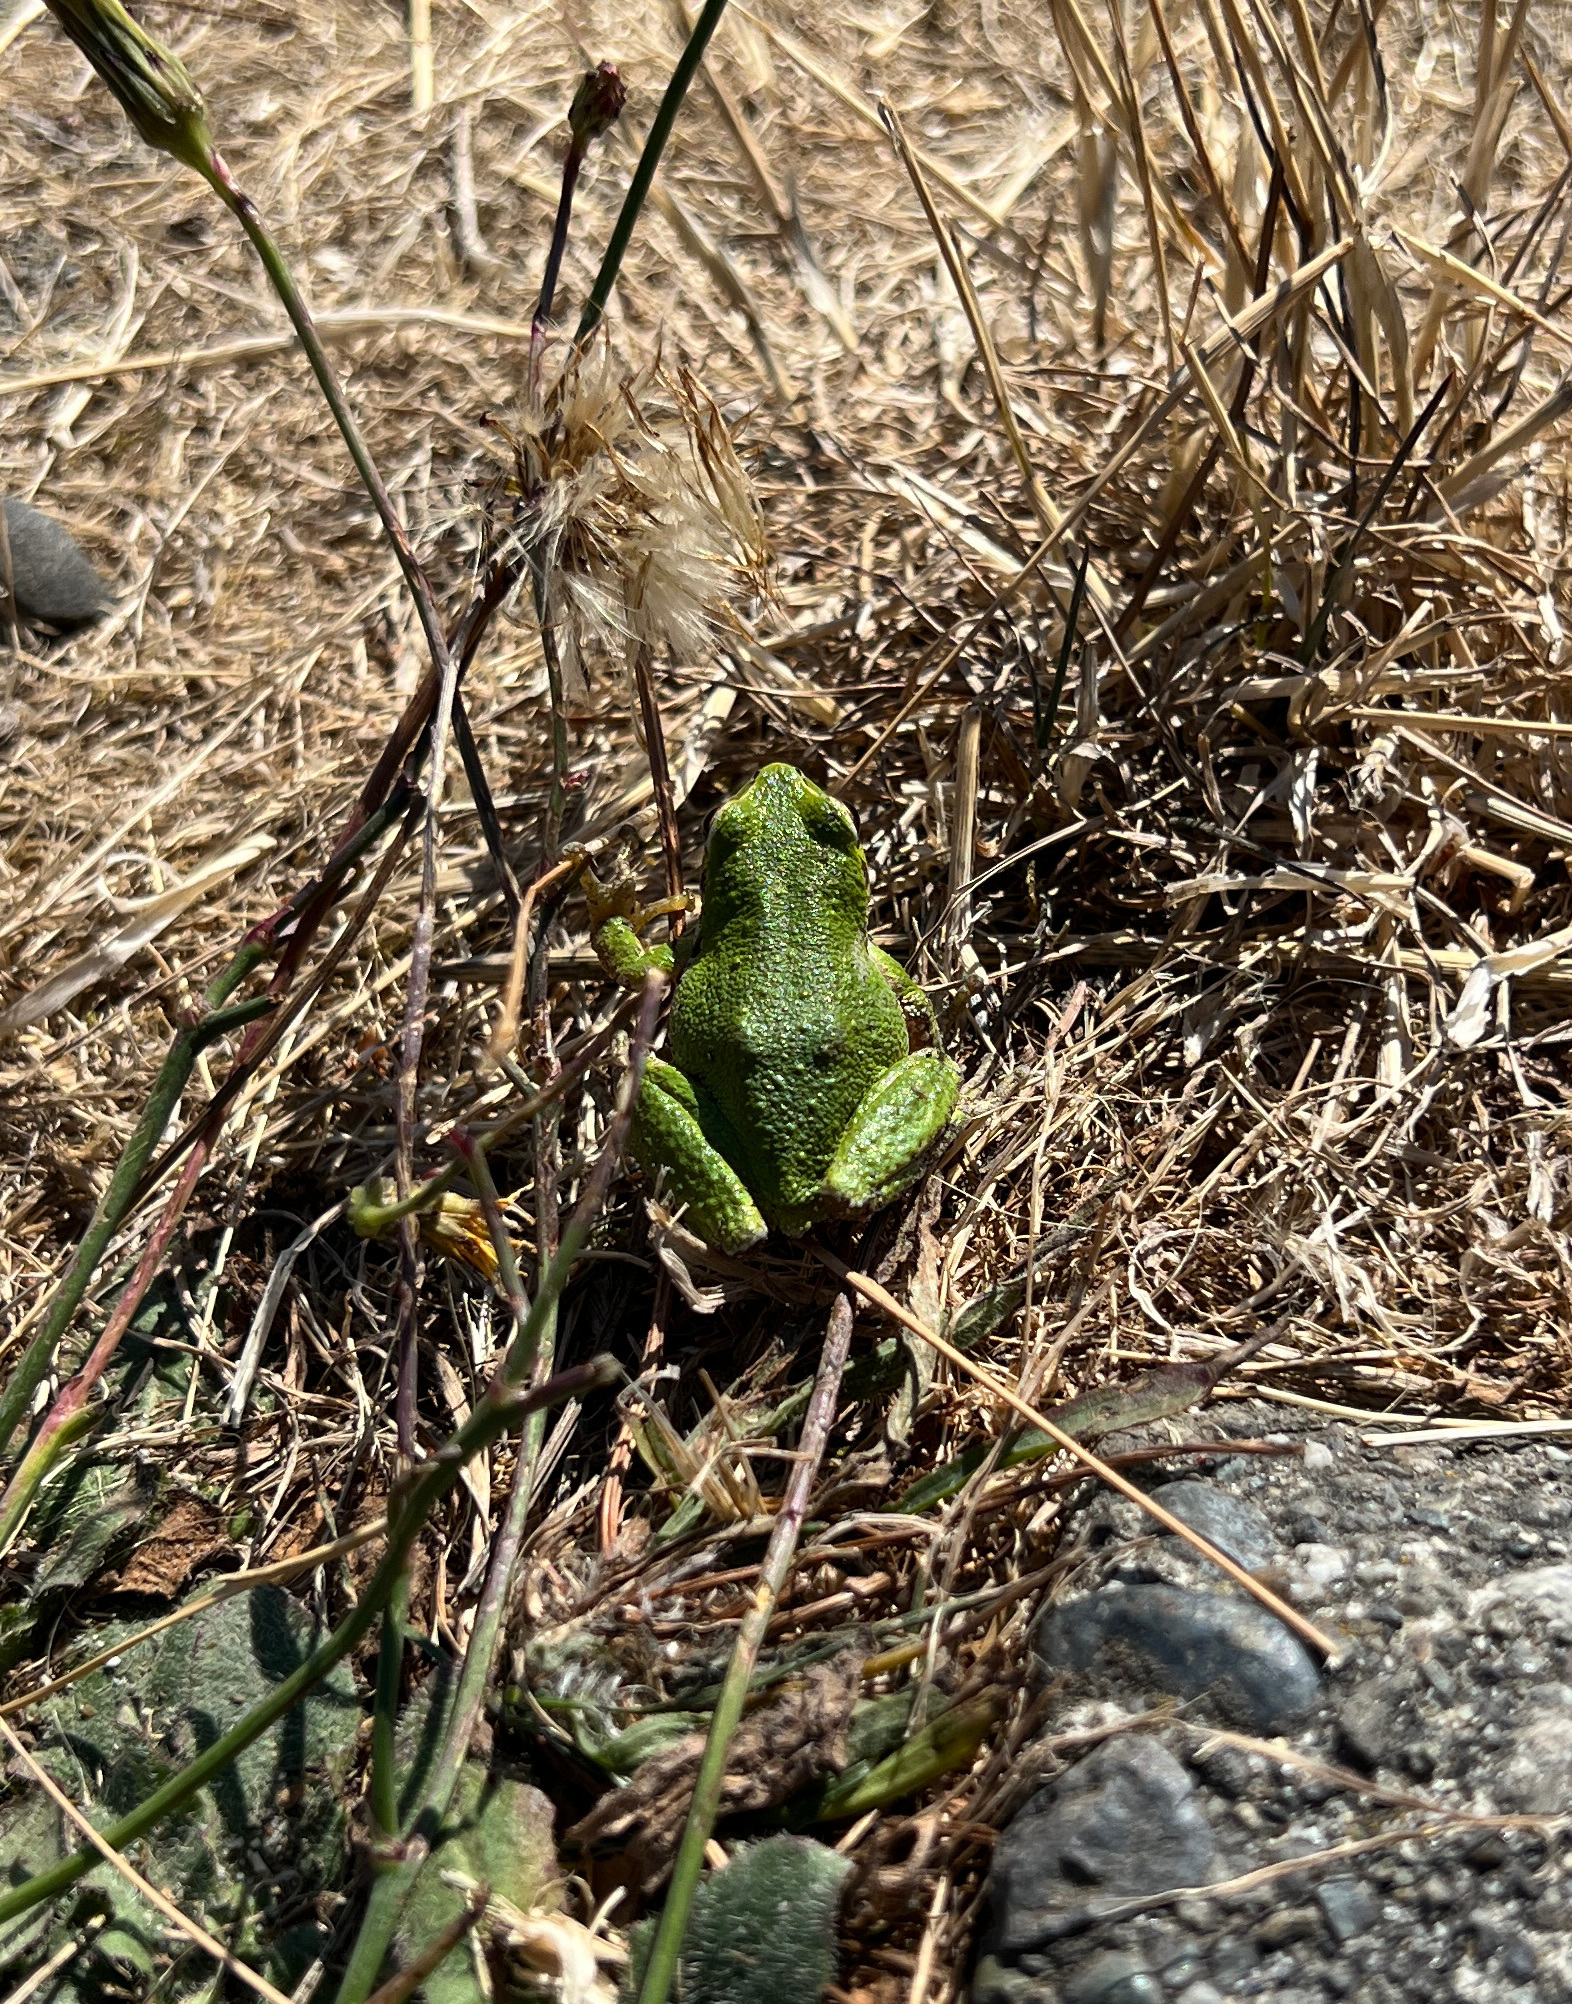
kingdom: Animalia
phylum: Chordata
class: Amphibia
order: Anura
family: Hylidae
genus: Pseudacris
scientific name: Pseudacris regilla
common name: Pacific chorus frog
